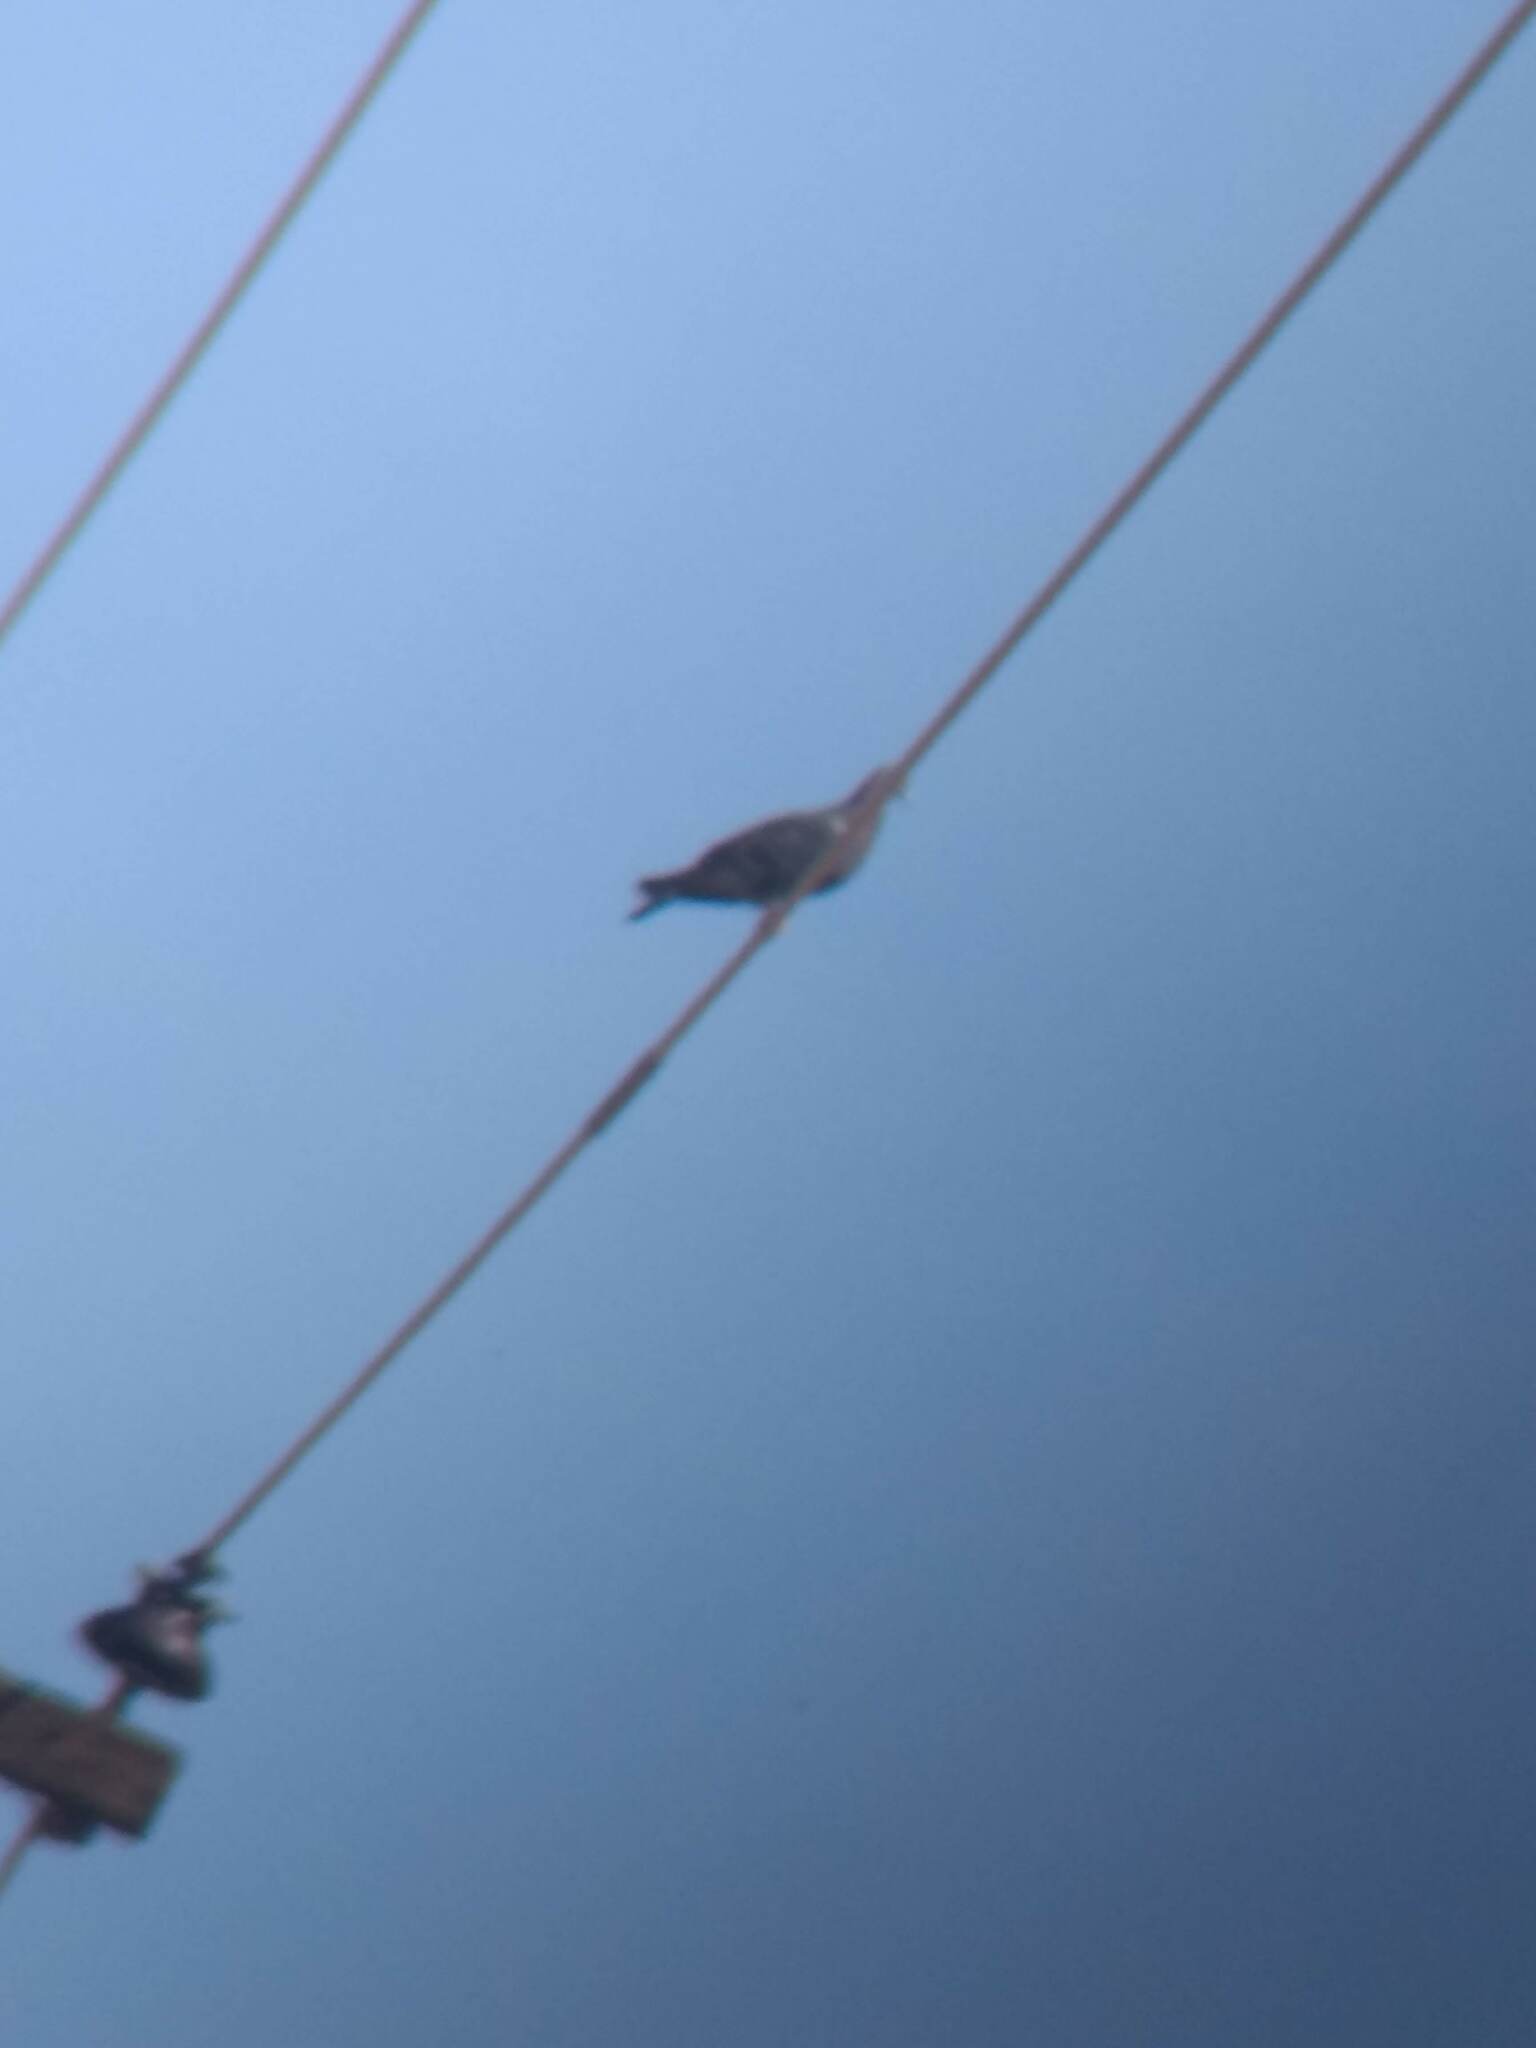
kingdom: Animalia
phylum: Chordata
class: Aves
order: Columbiformes
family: Columbidae
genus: Patagioenas
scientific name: Patagioenas fasciata
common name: Band-tailed pigeon
